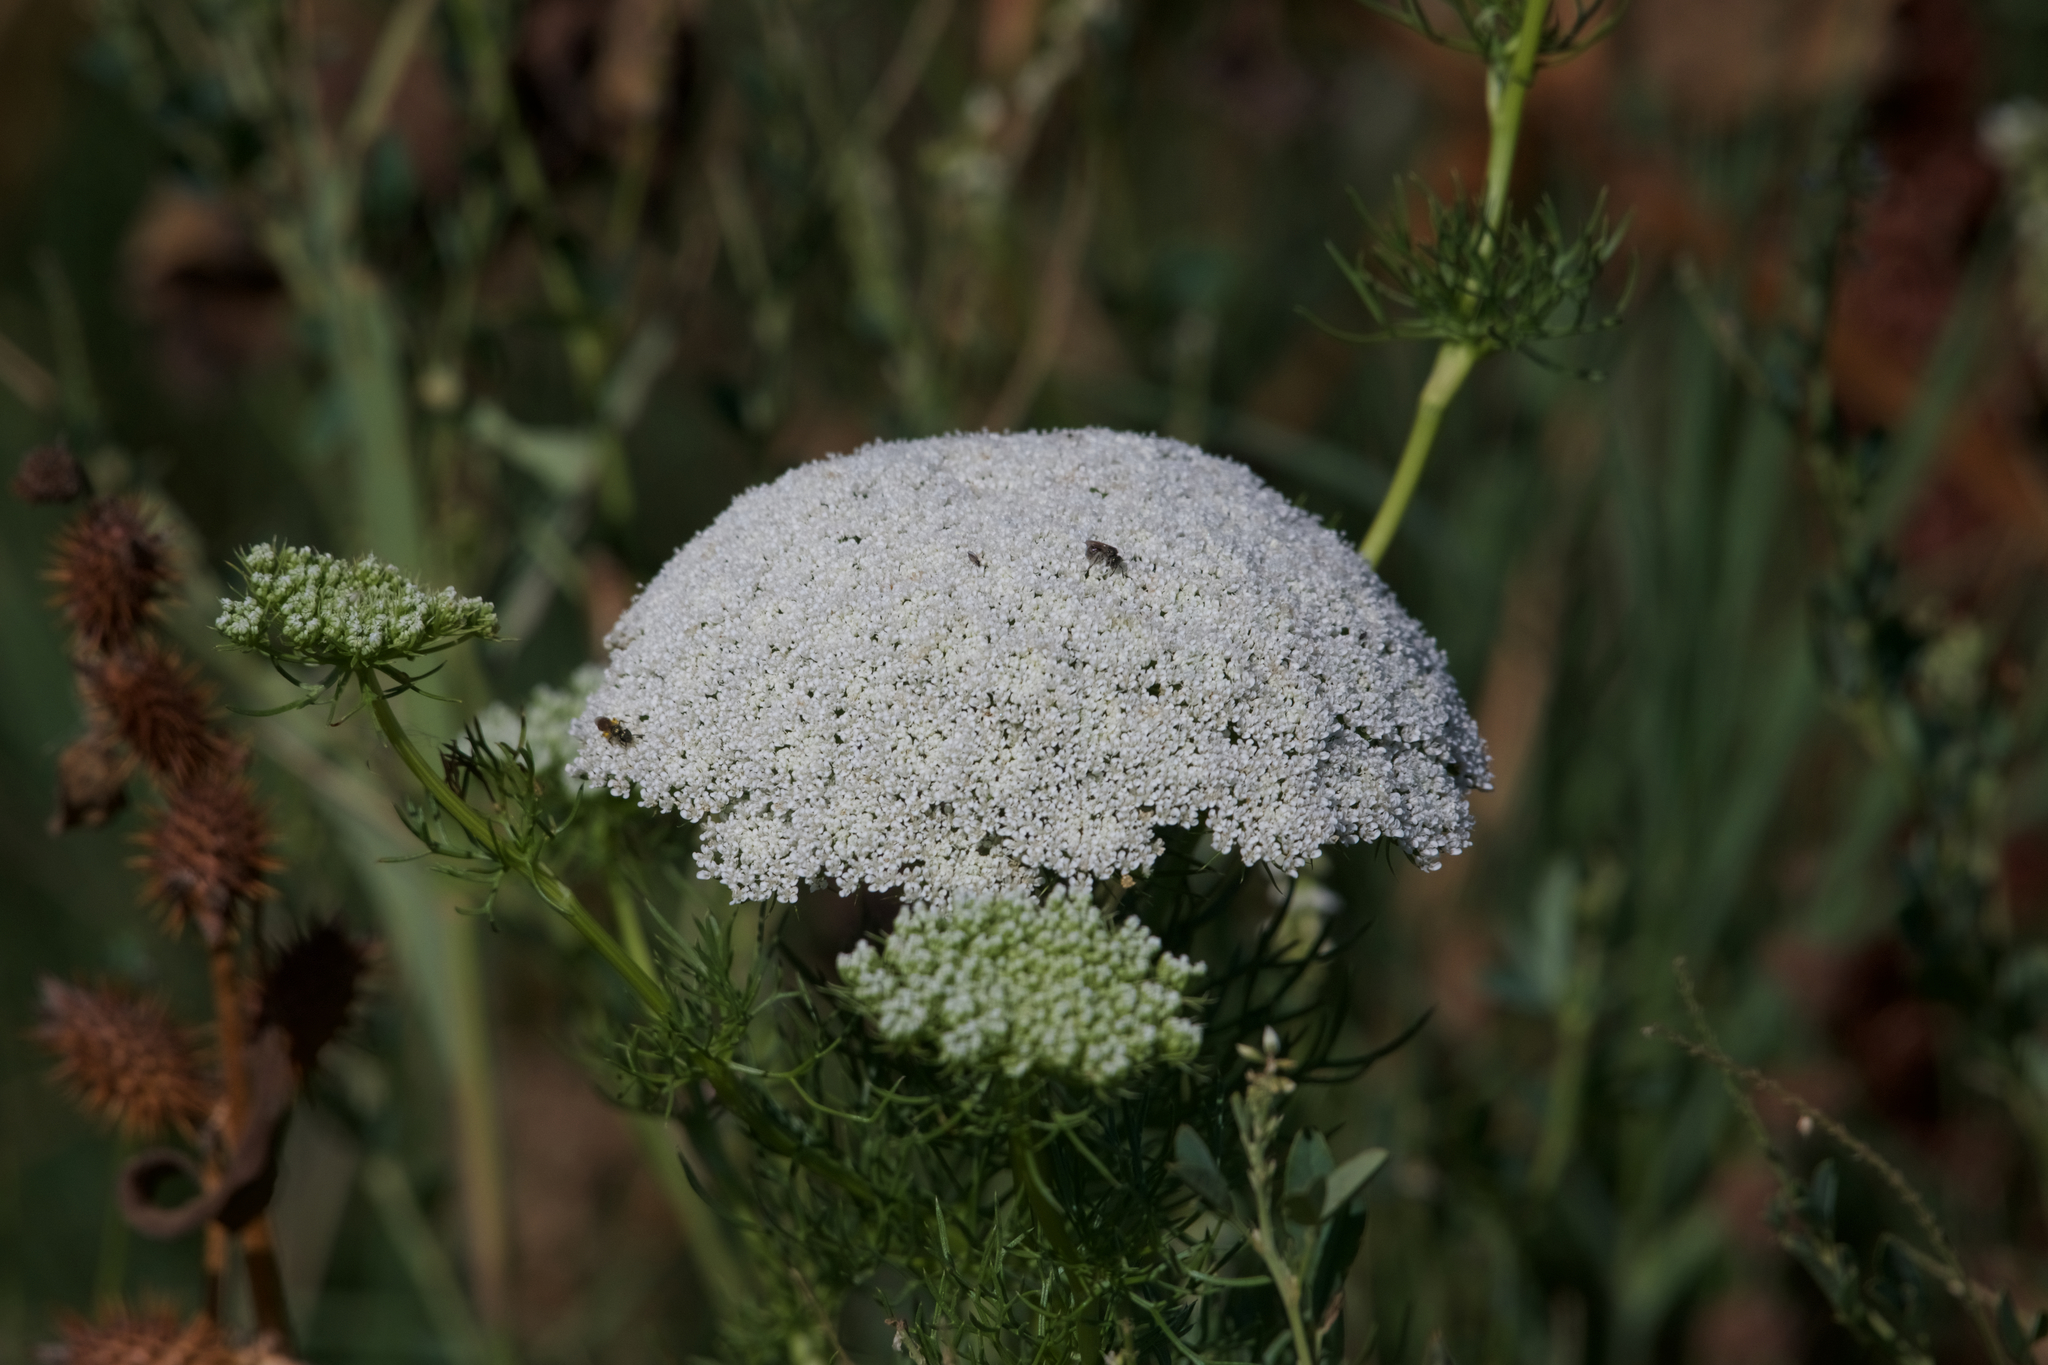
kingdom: Plantae
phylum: Tracheophyta
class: Magnoliopsida
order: Apiales
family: Apiaceae
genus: Visnaga
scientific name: Visnaga daucoides
